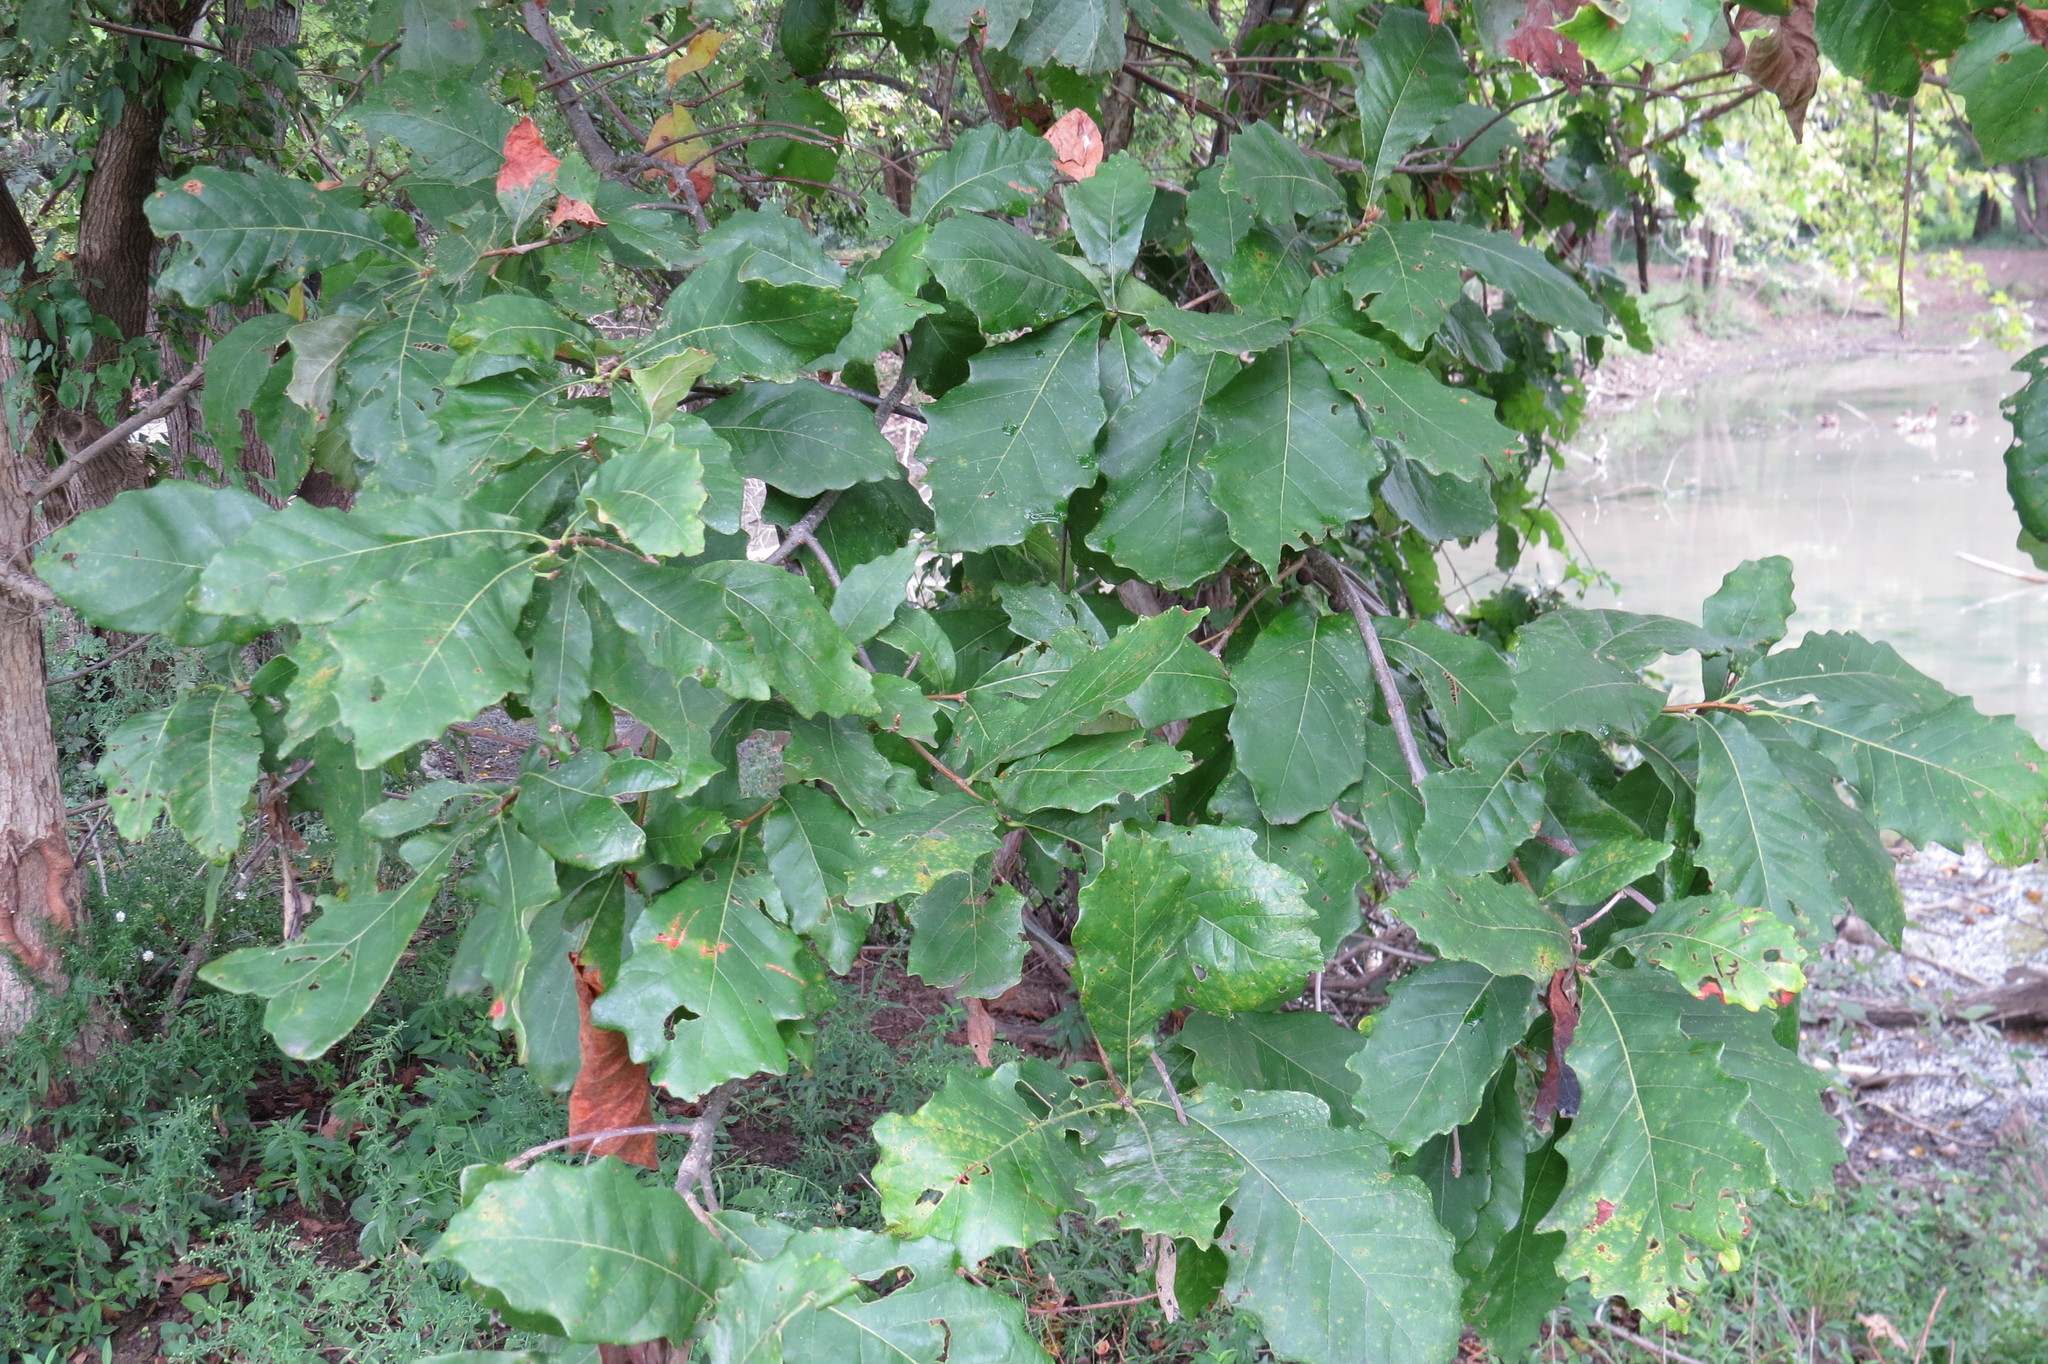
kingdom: Plantae
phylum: Tracheophyta
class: Magnoliopsida
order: Fagales
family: Fagaceae
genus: Quercus
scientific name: Quercus bicolor
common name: Swamp white oak
